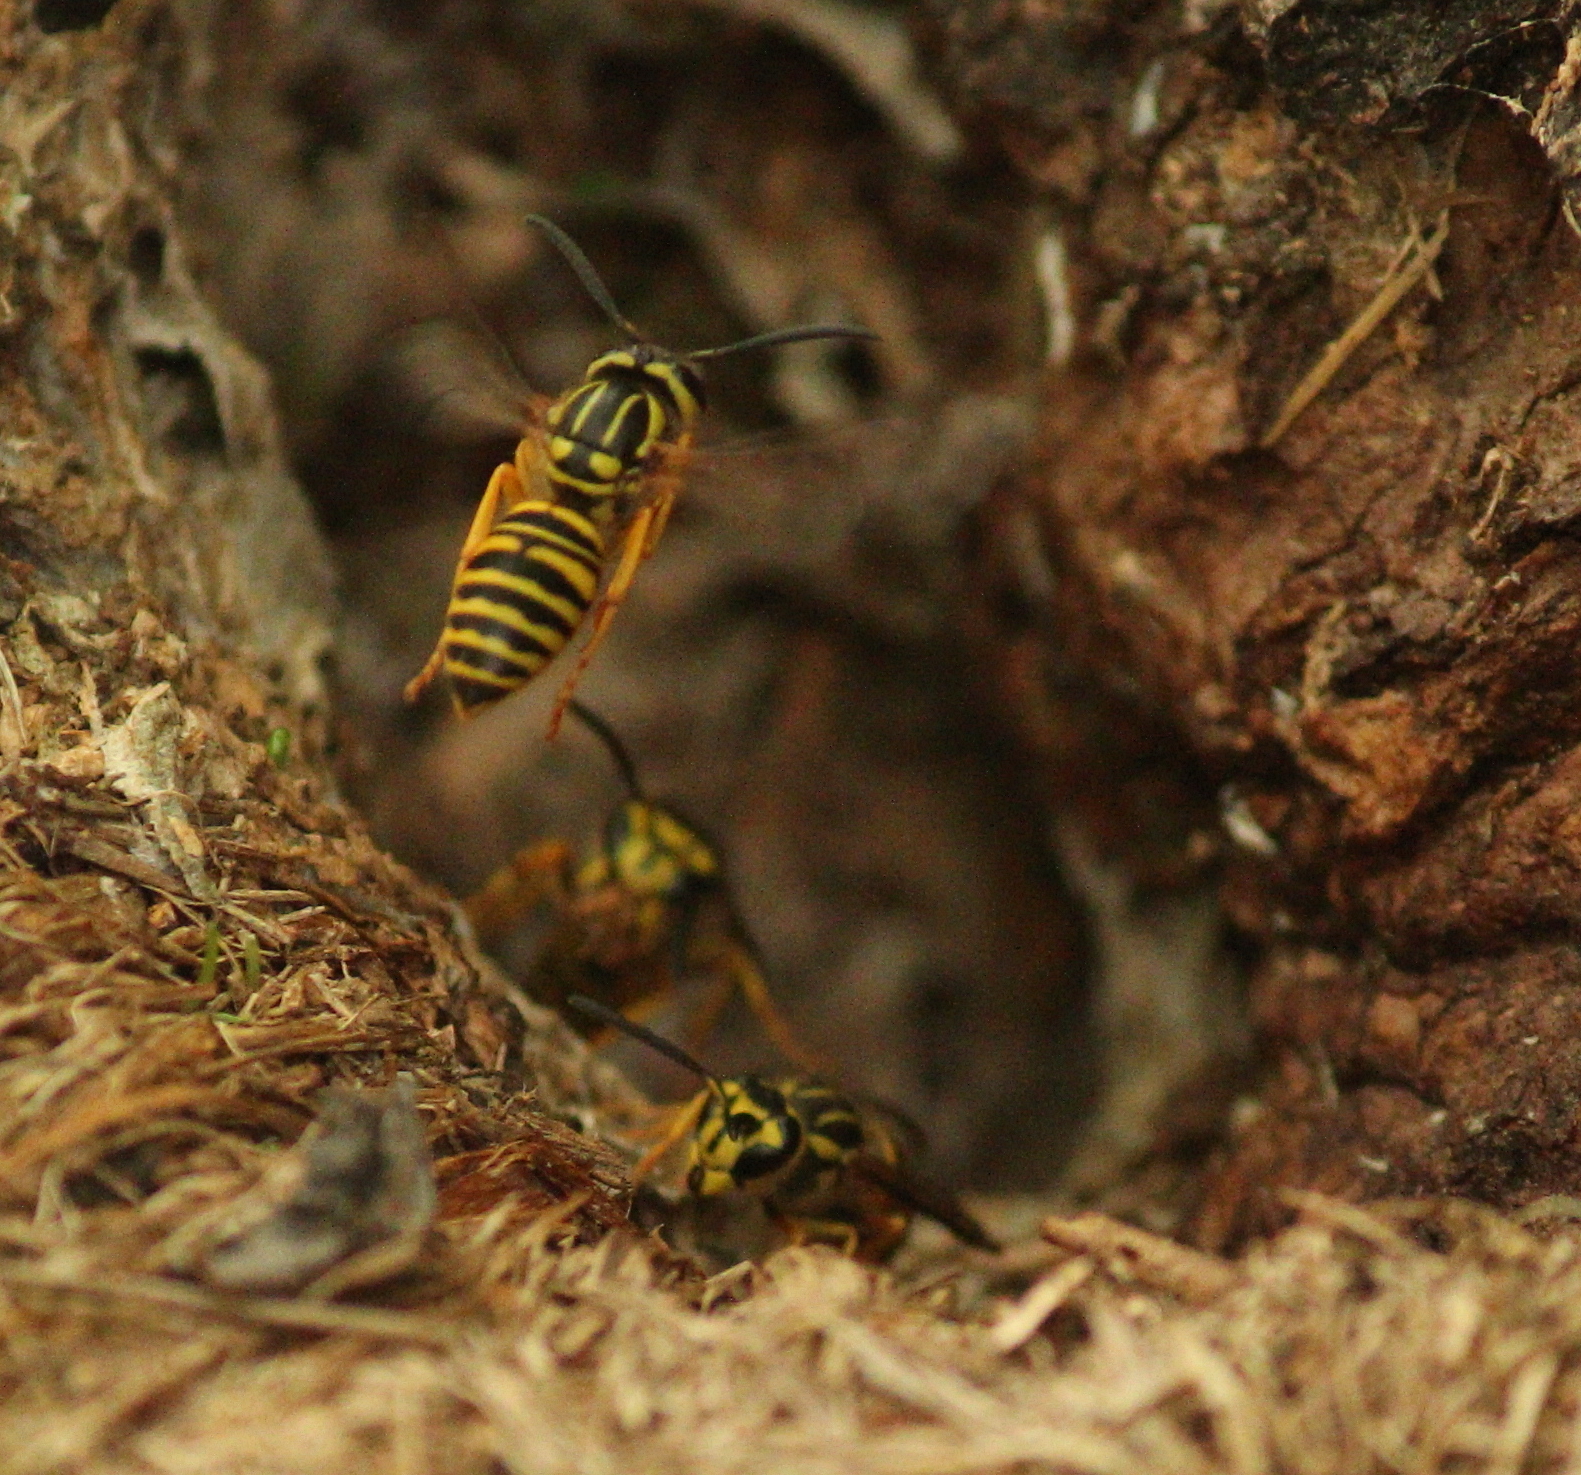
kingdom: Animalia
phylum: Arthropoda
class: Insecta
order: Hymenoptera
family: Vespidae
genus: Vespula
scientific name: Vespula squamosa
